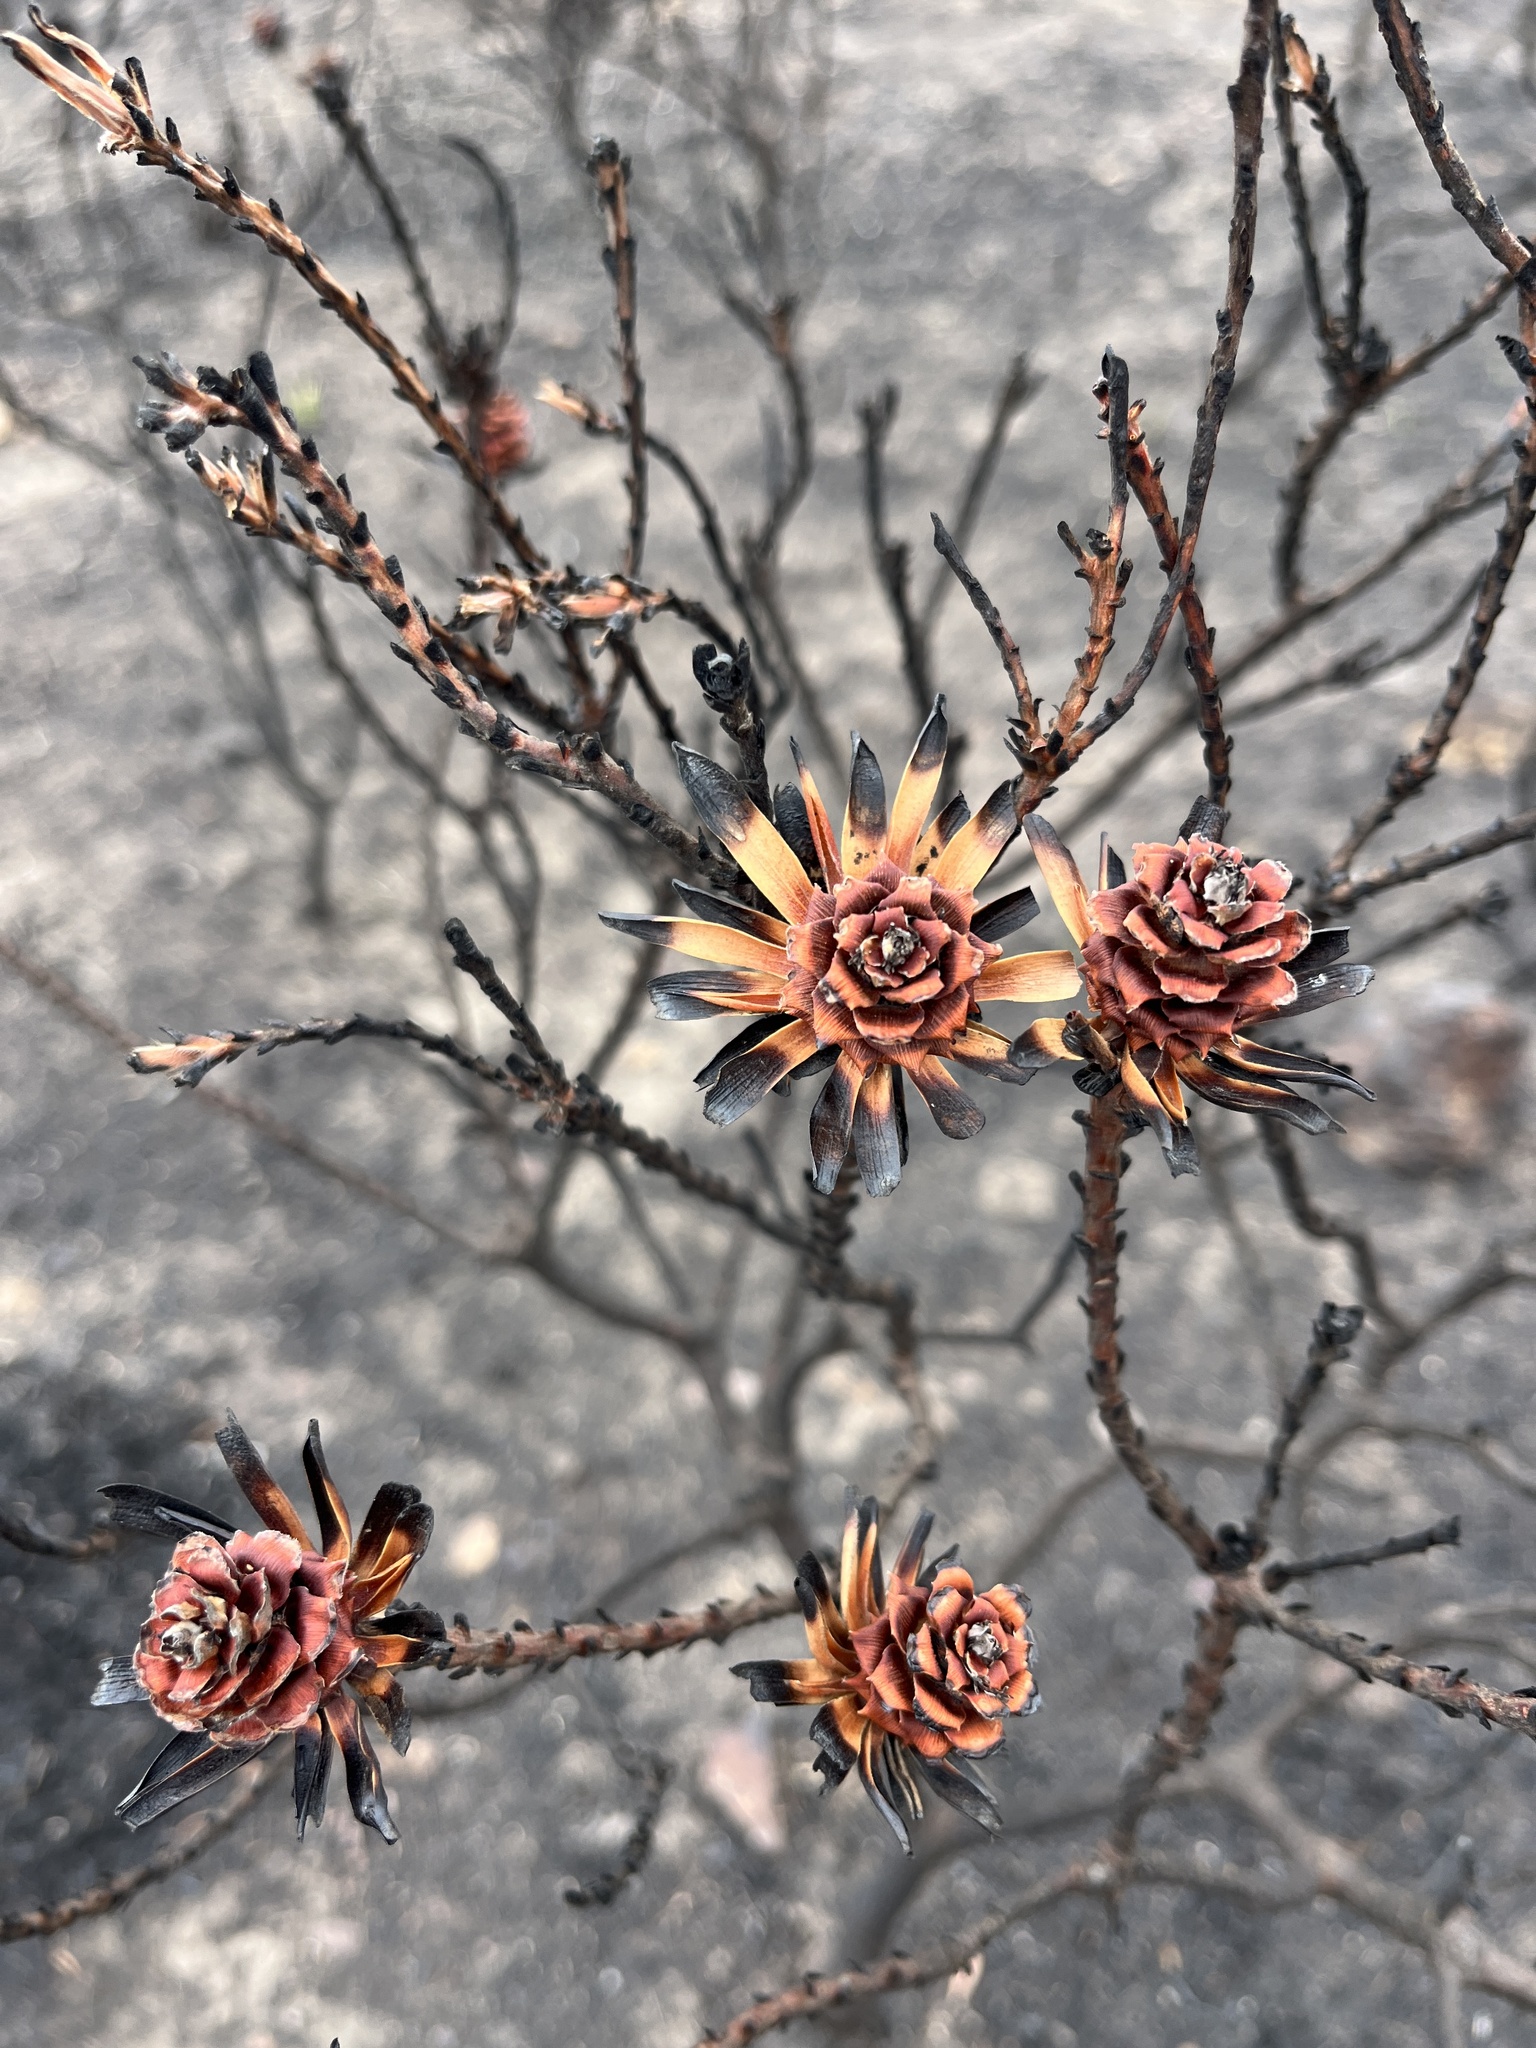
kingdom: Plantae
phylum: Tracheophyta
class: Magnoliopsida
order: Proteales
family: Proteaceae
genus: Leucadendron
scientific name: Leucadendron stelligerum
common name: Agulhas conebush
